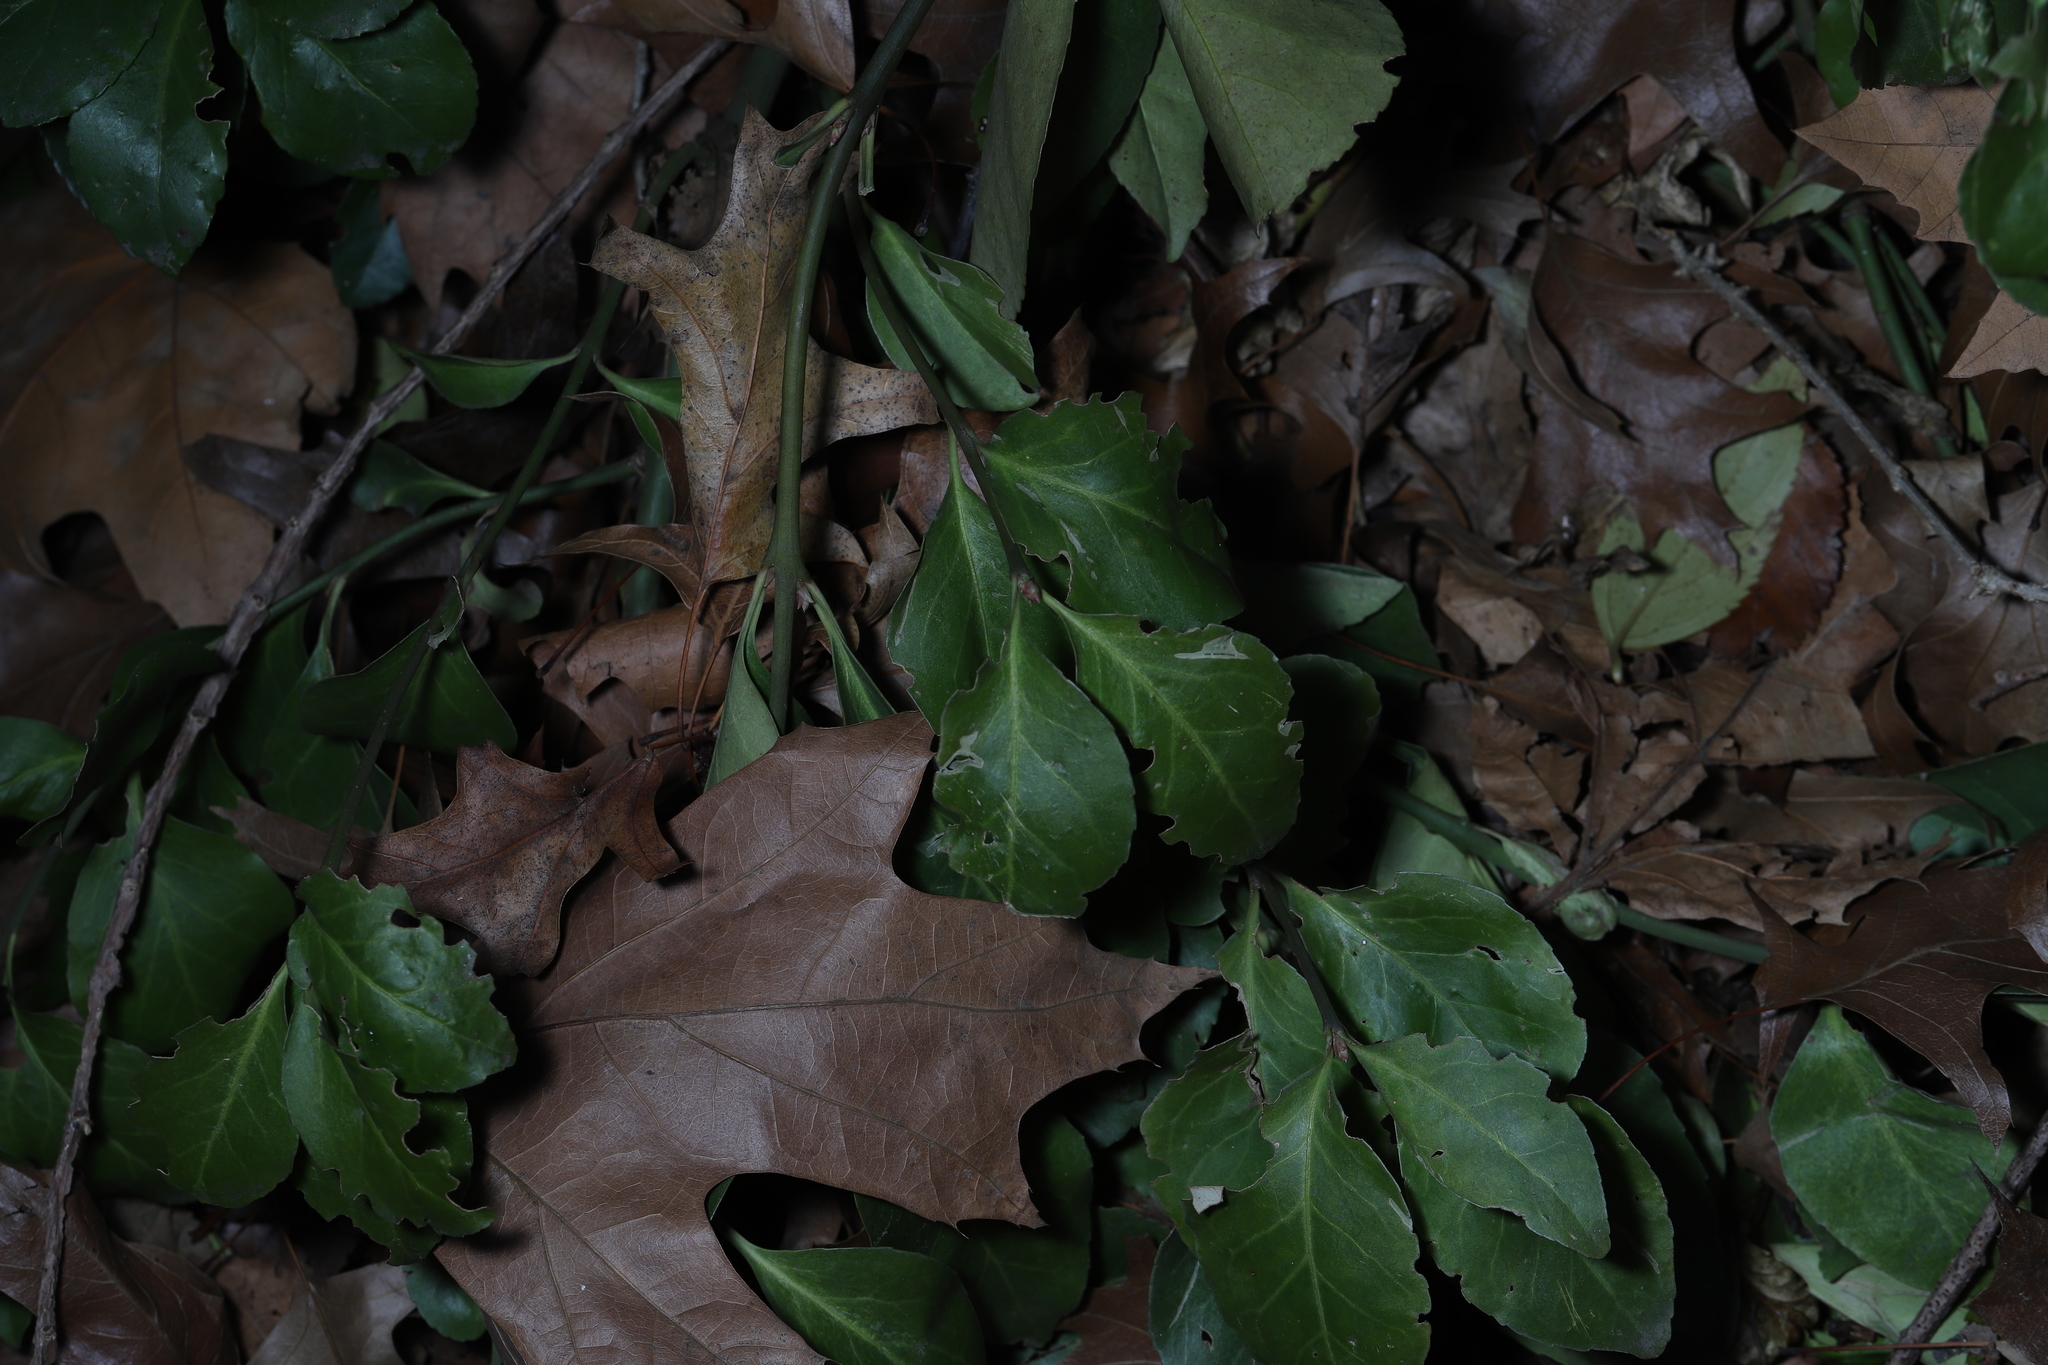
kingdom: Plantae
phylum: Tracheophyta
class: Magnoliopsida
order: Celastrales
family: Celastraceae
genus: Euonymus
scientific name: Euonymus fortunei
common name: Climbing euonymus
